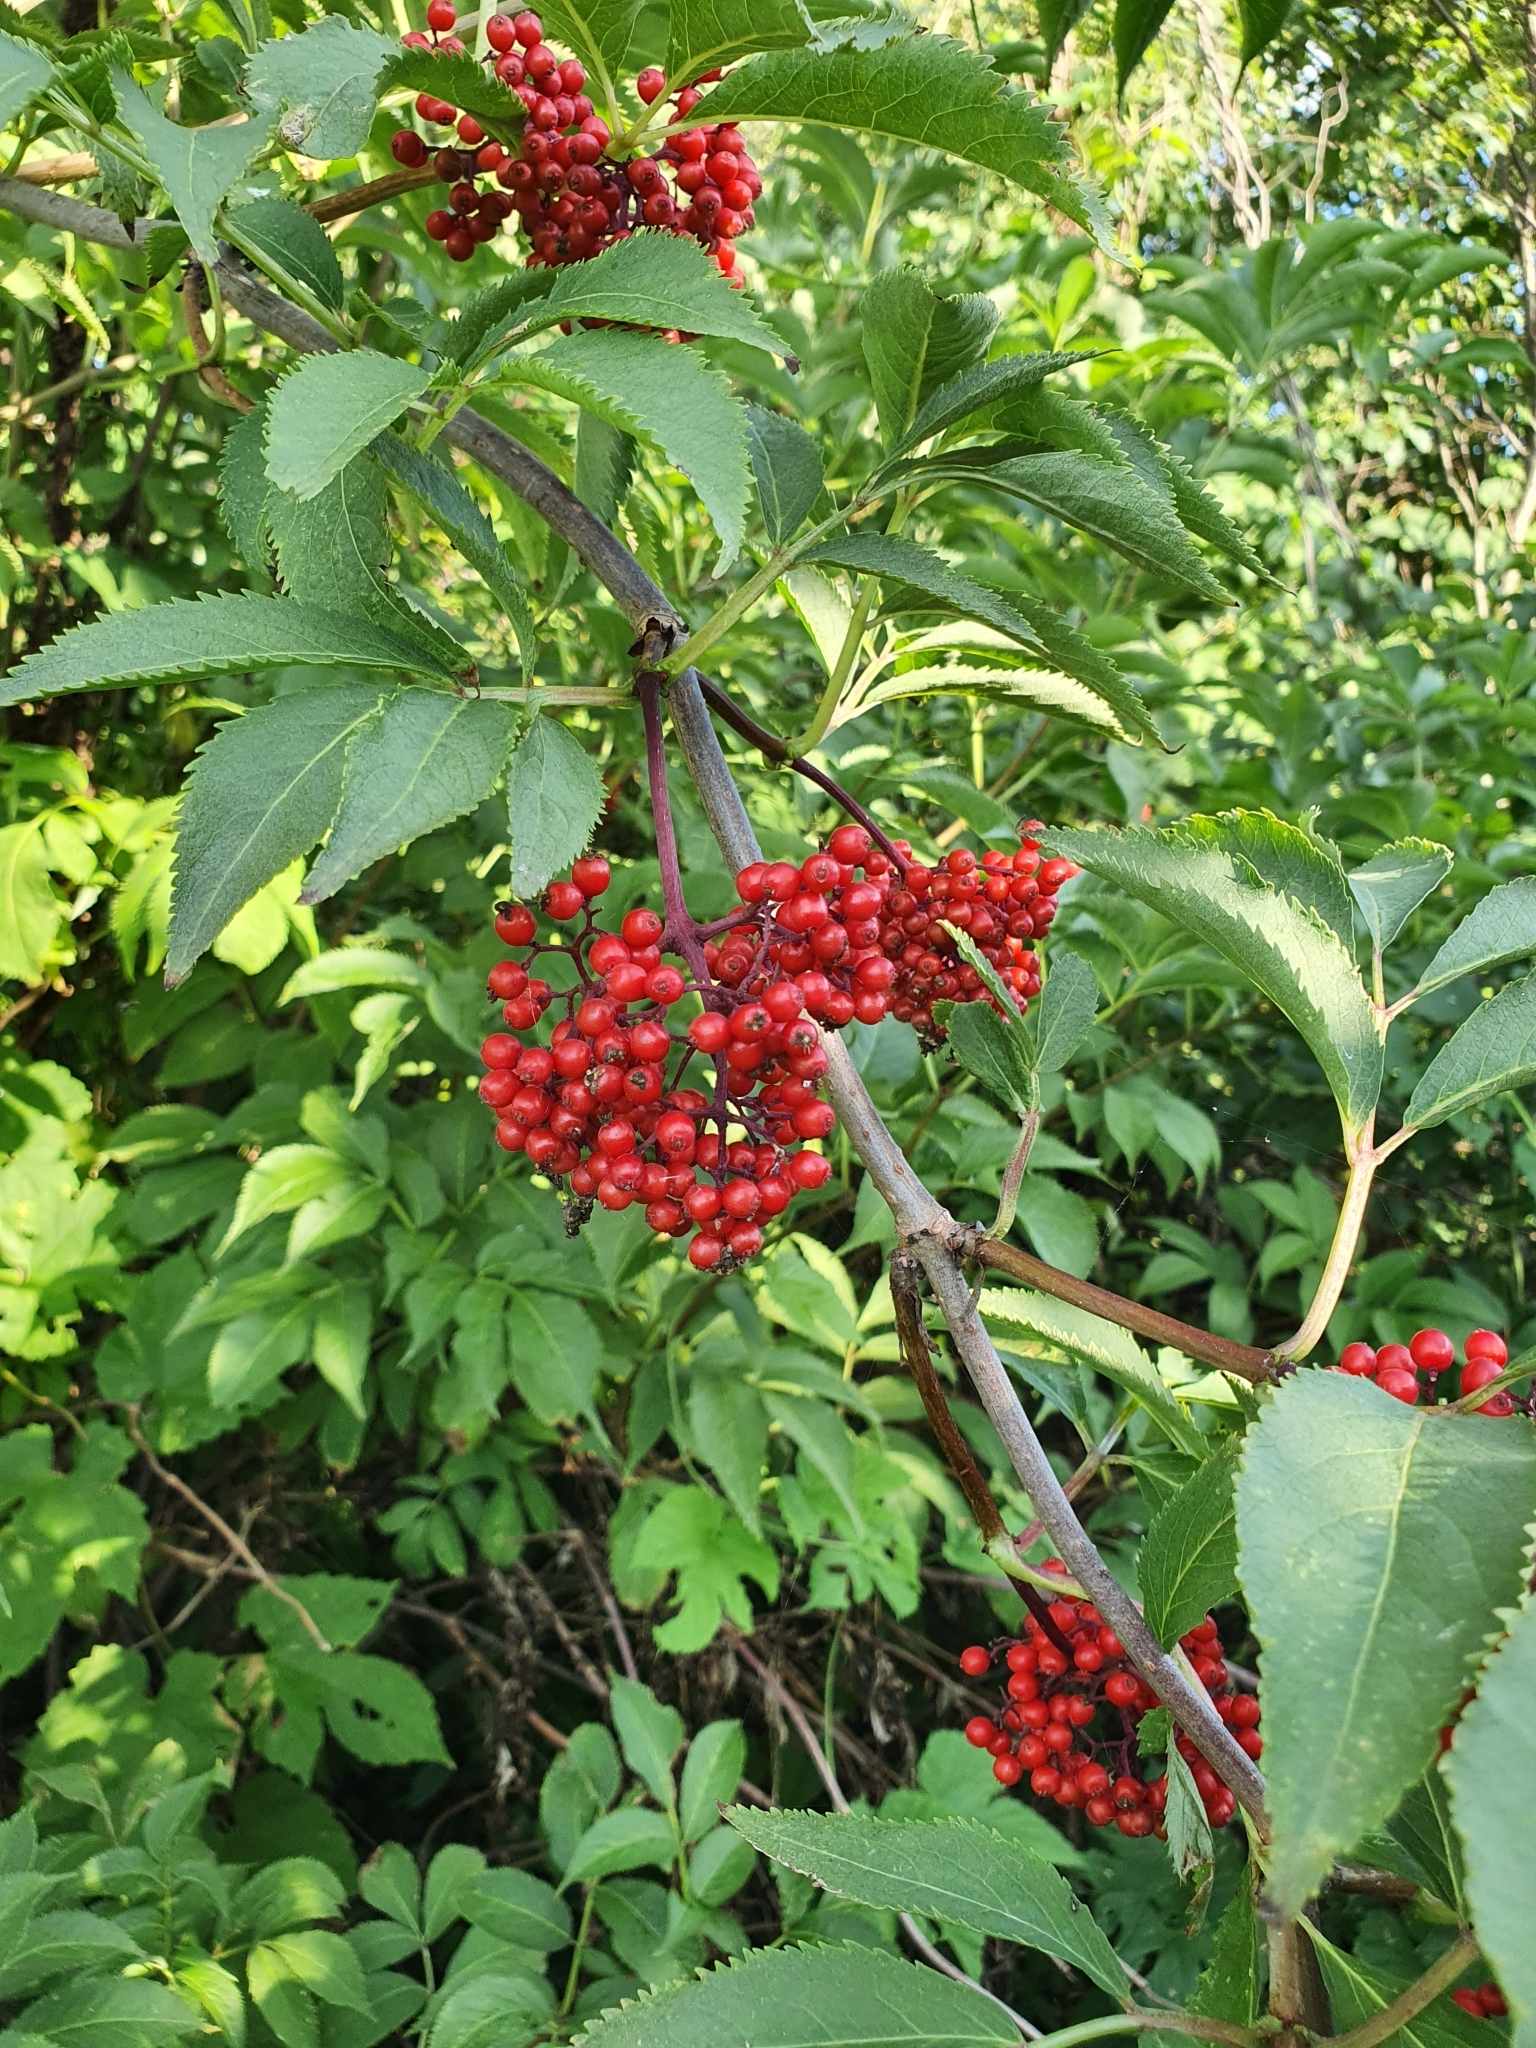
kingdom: Plantae
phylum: Tracheophyta
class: Magnoliopsida
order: Dipsacales
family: Viburnaceae
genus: Sambucus
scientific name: Sambucus racemosa
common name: Red-berried elder
